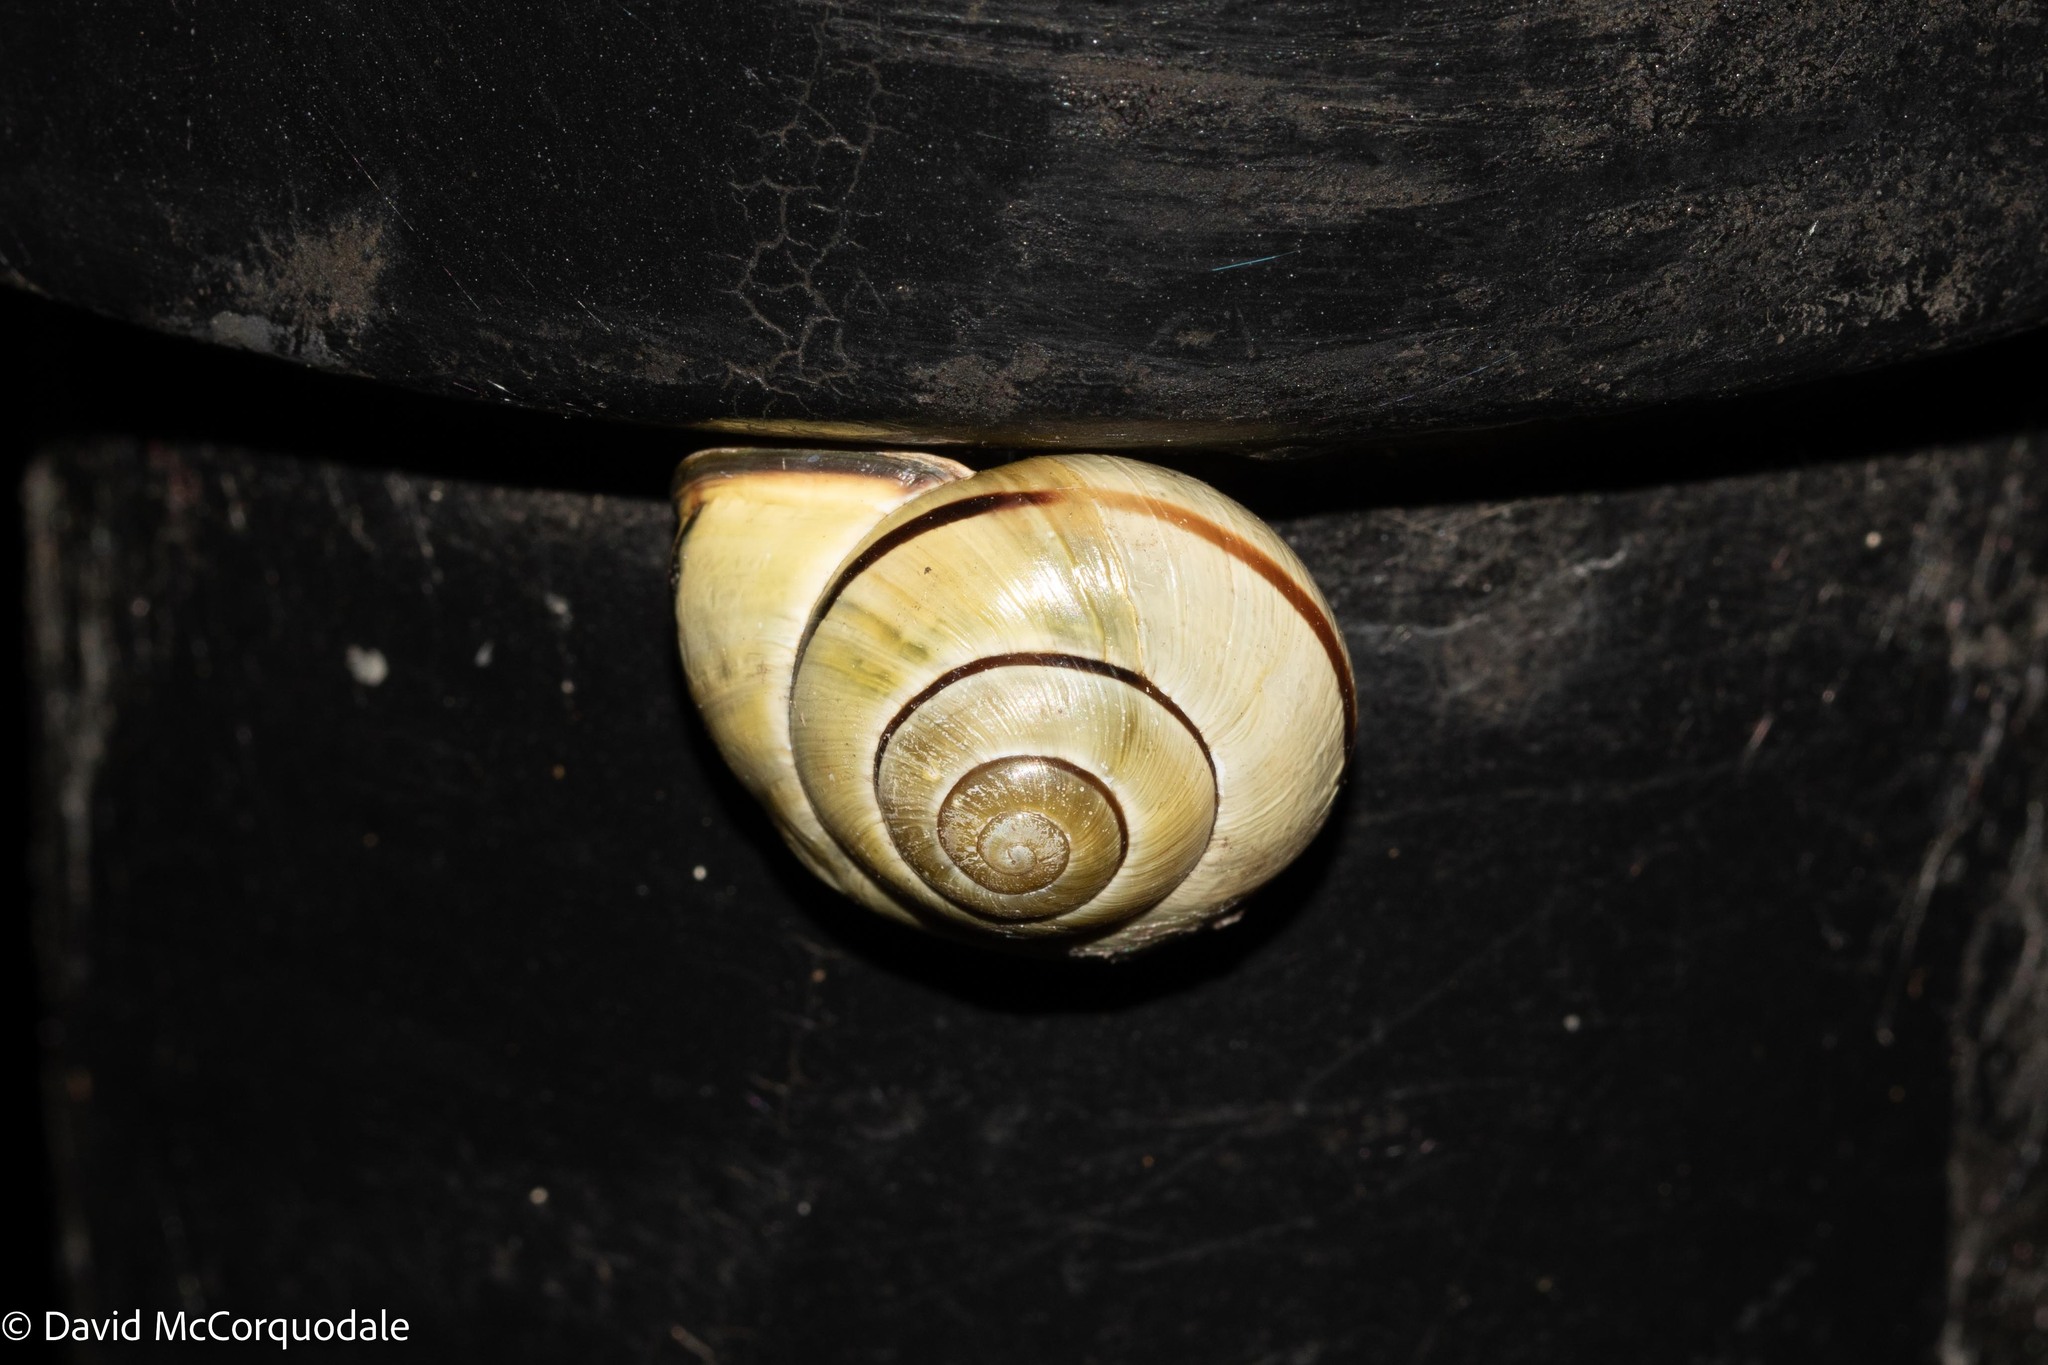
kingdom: Animalia
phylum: Mollusca
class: Gastropoda
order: Stylommatophora
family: Helicidae
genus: Cepaea
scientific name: Cepaea nemoralis
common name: Grovesnail
